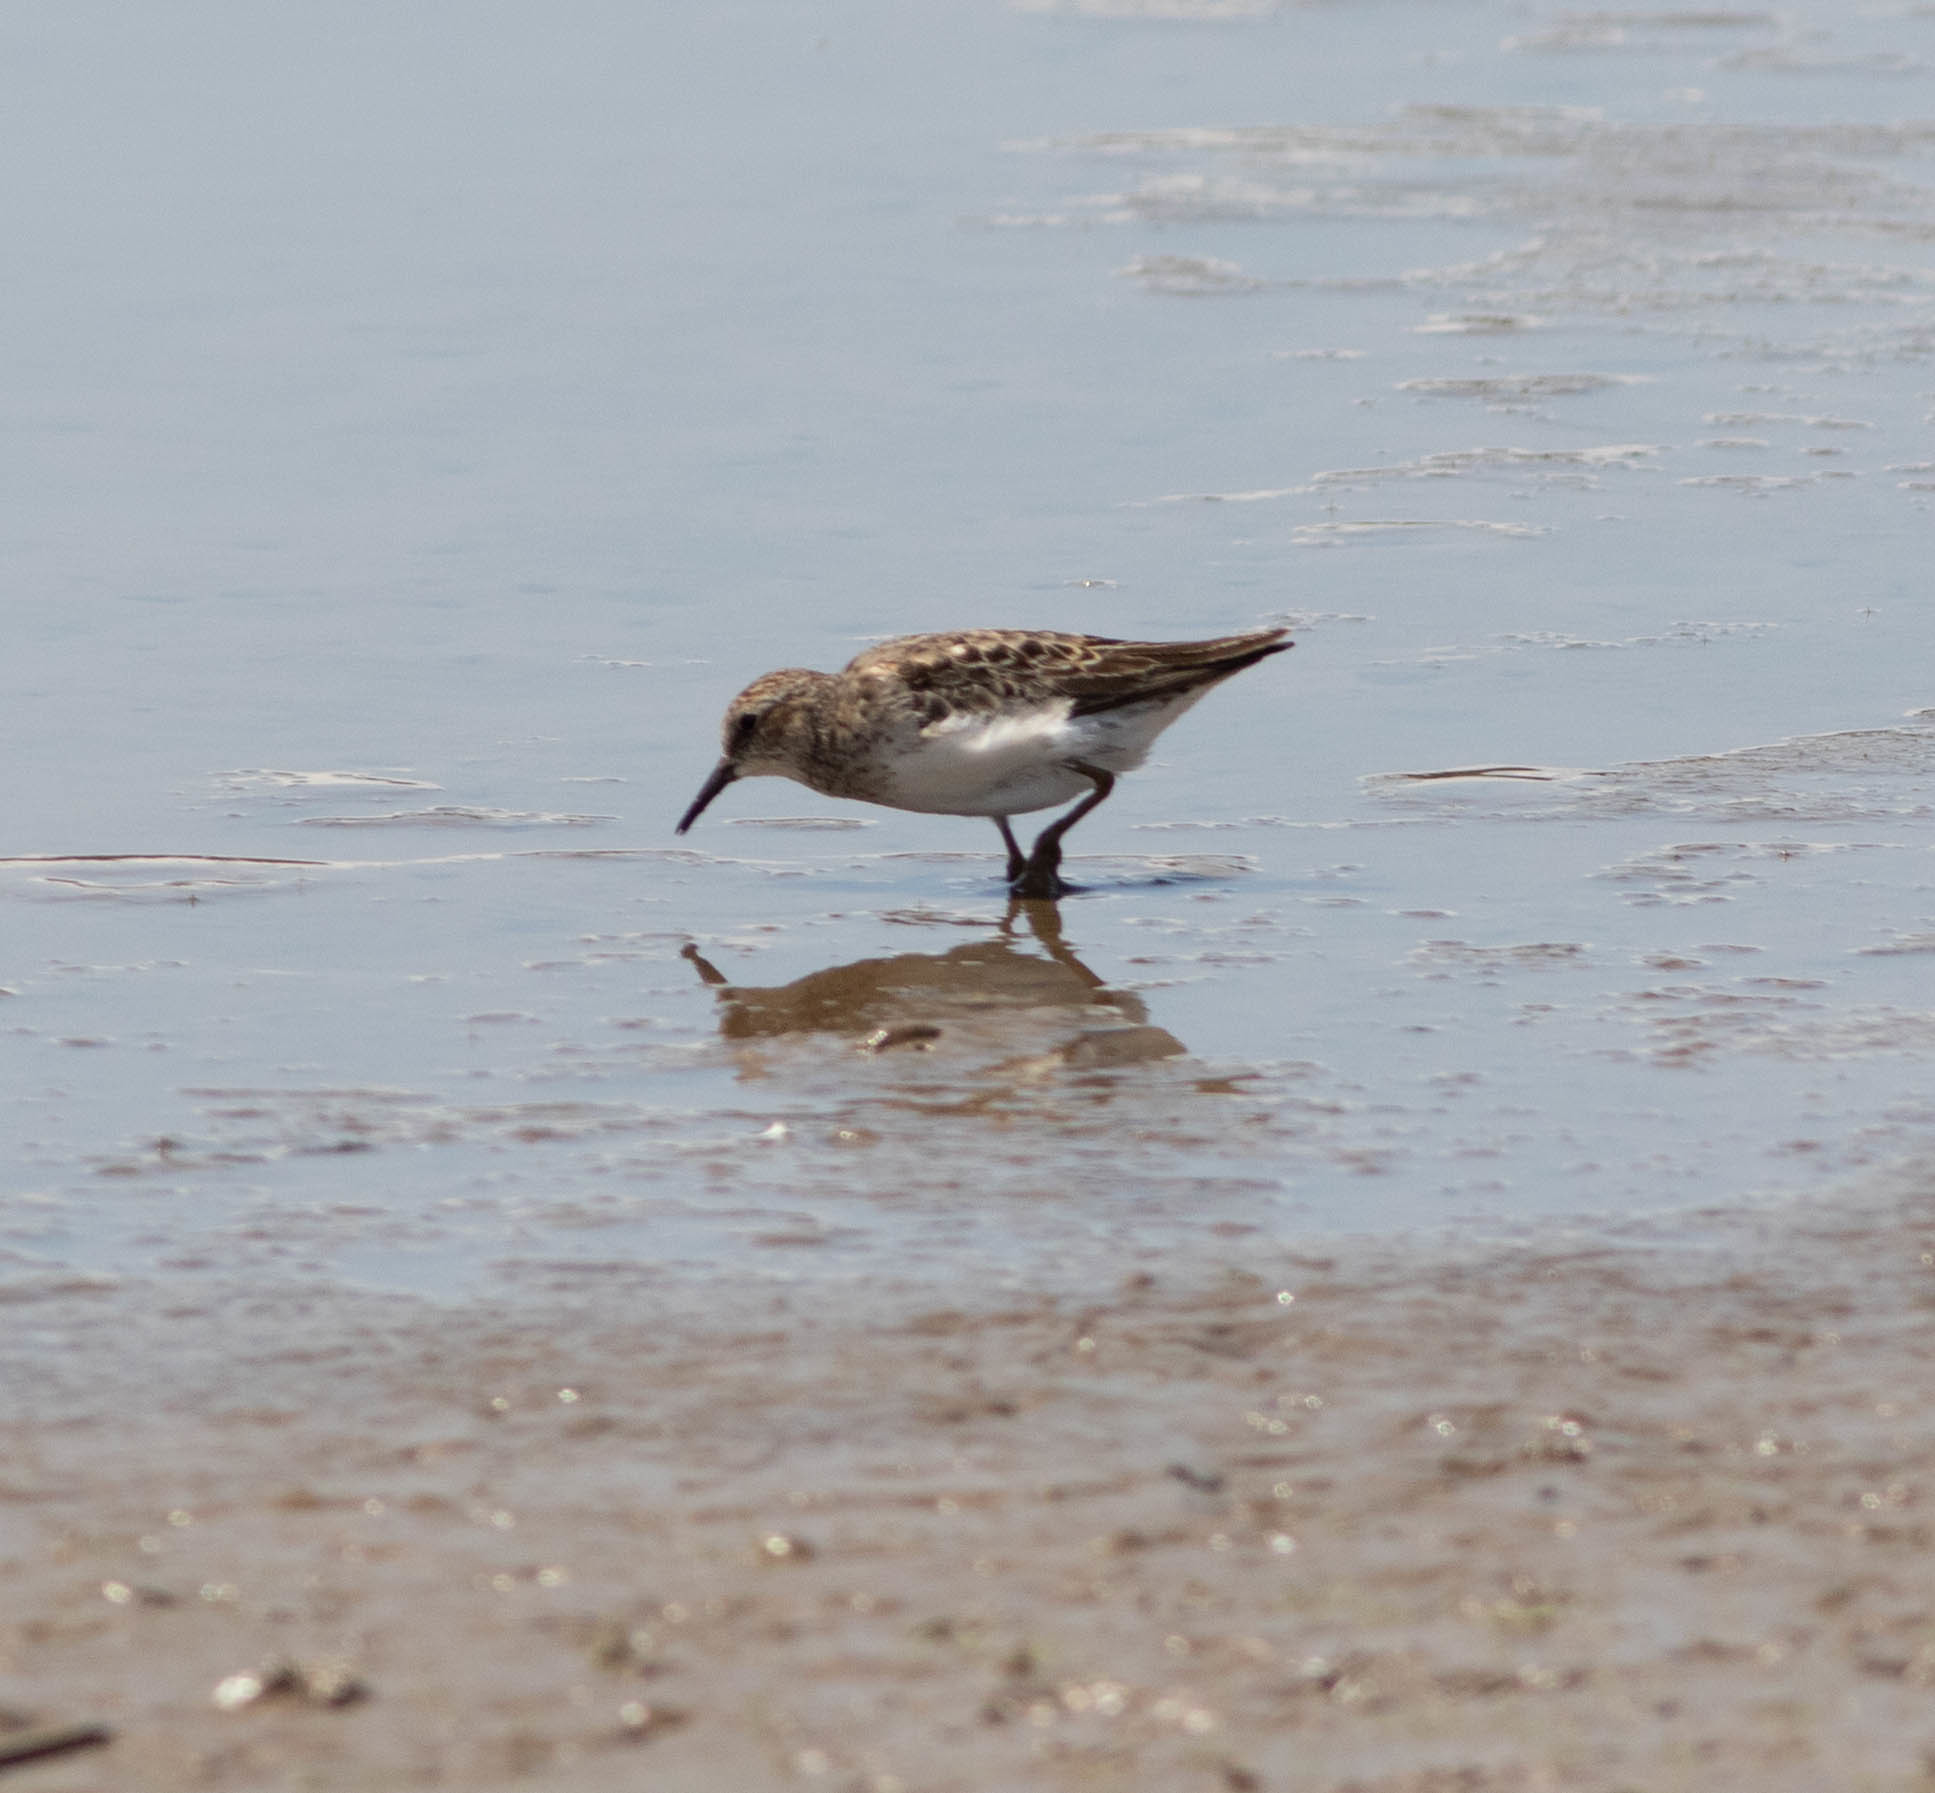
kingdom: Animalia
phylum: Chordata
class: Aves
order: Charadriiformes
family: Scolopacidae
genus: Calidris
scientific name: Calidris minutilla
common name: Least sandpiper
